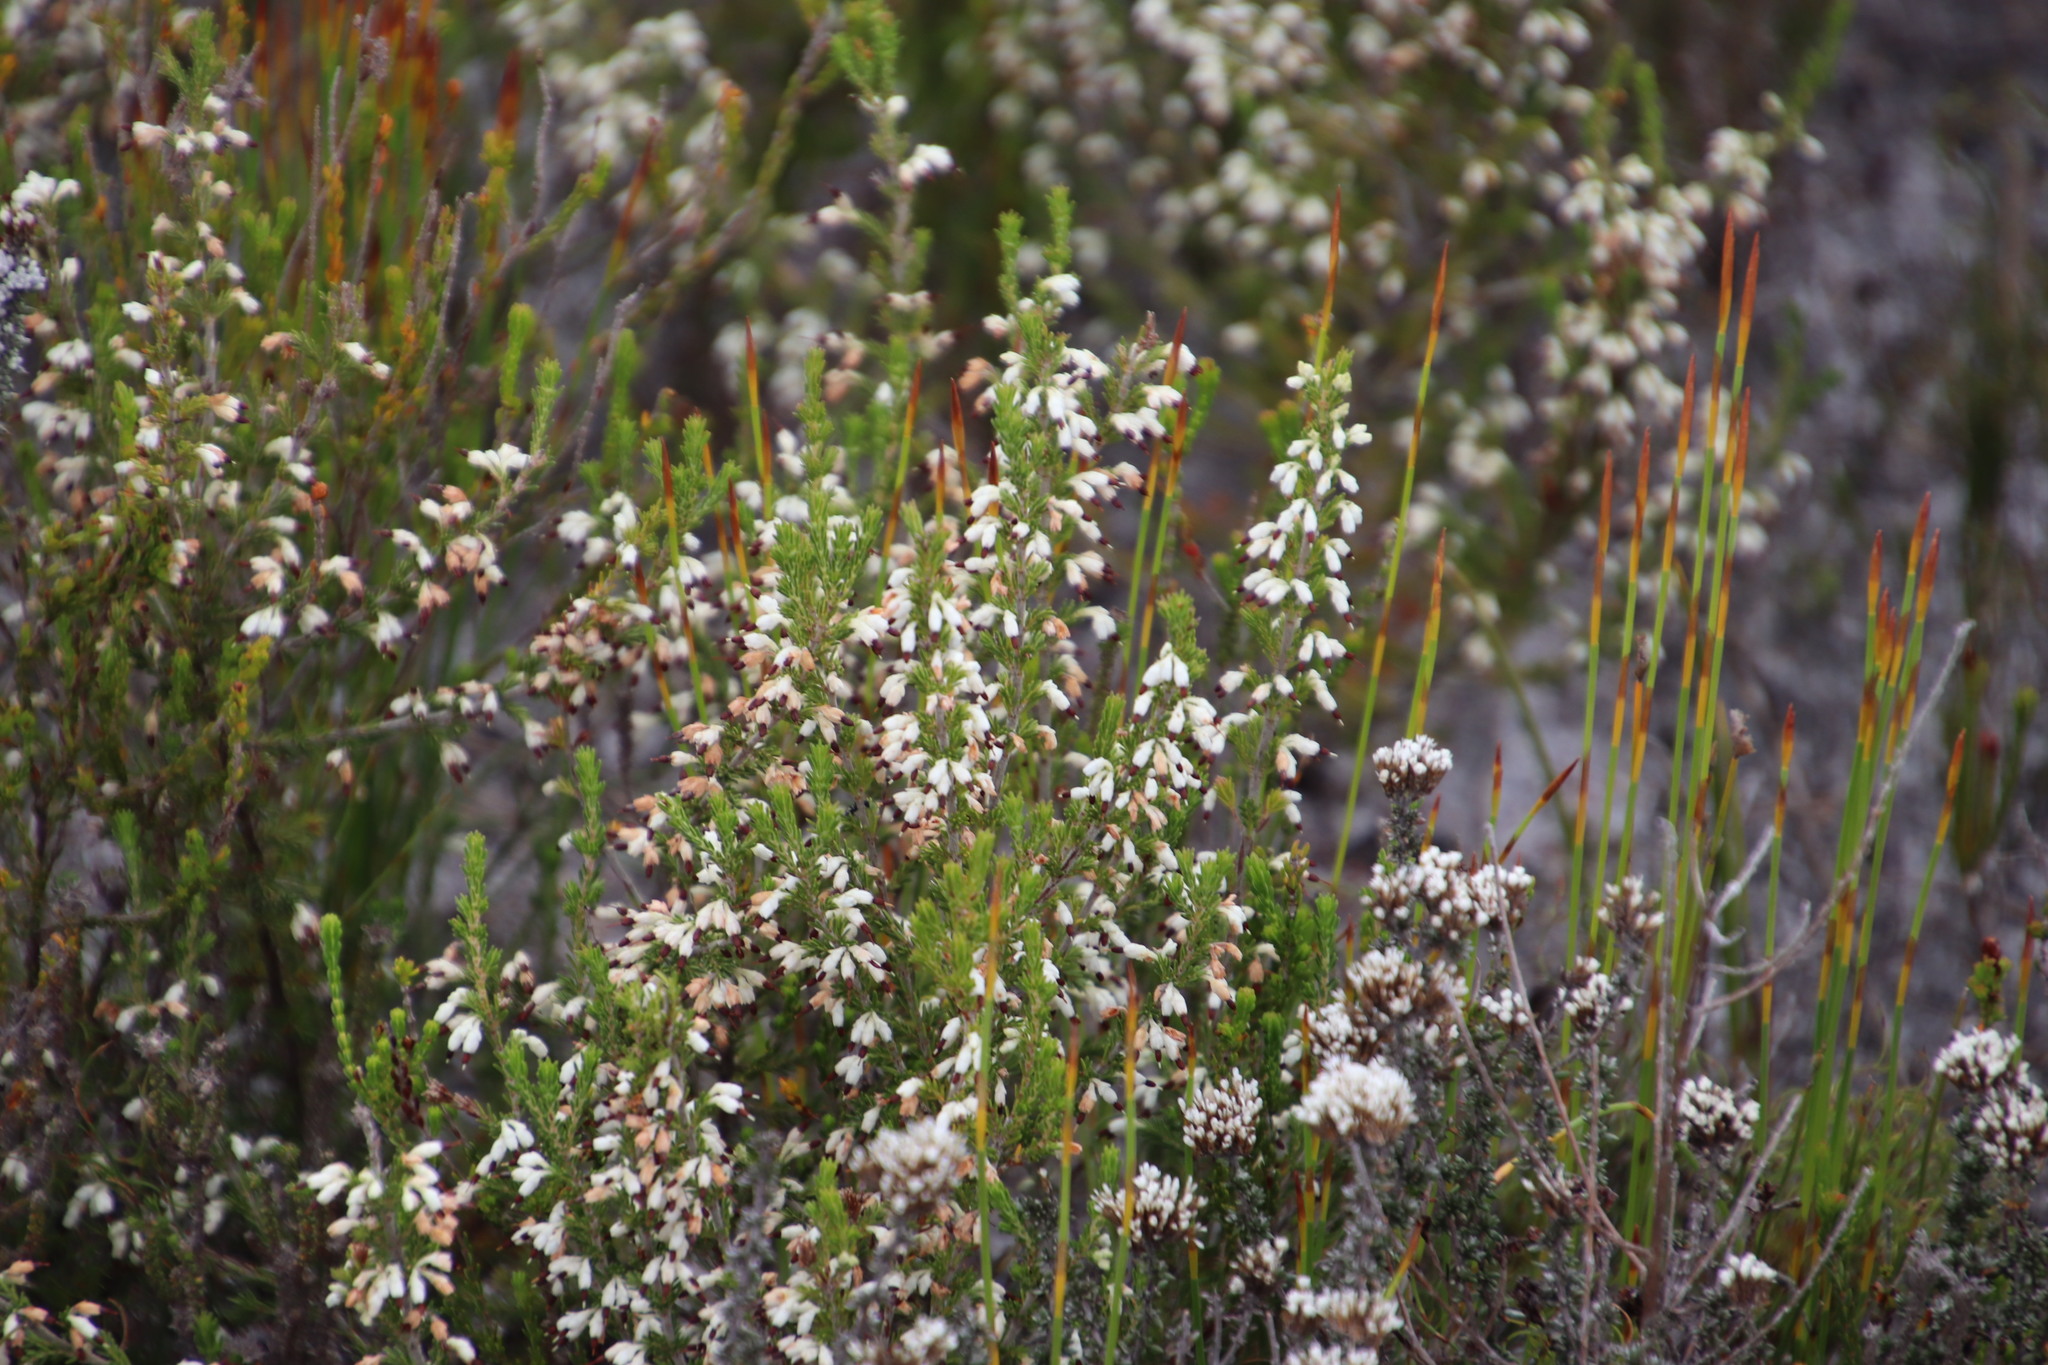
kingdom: Plantae
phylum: Tracheophyta
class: Magnoliopsida
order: Ericales
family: Ericaceae
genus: Erica
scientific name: Erica imbricata
